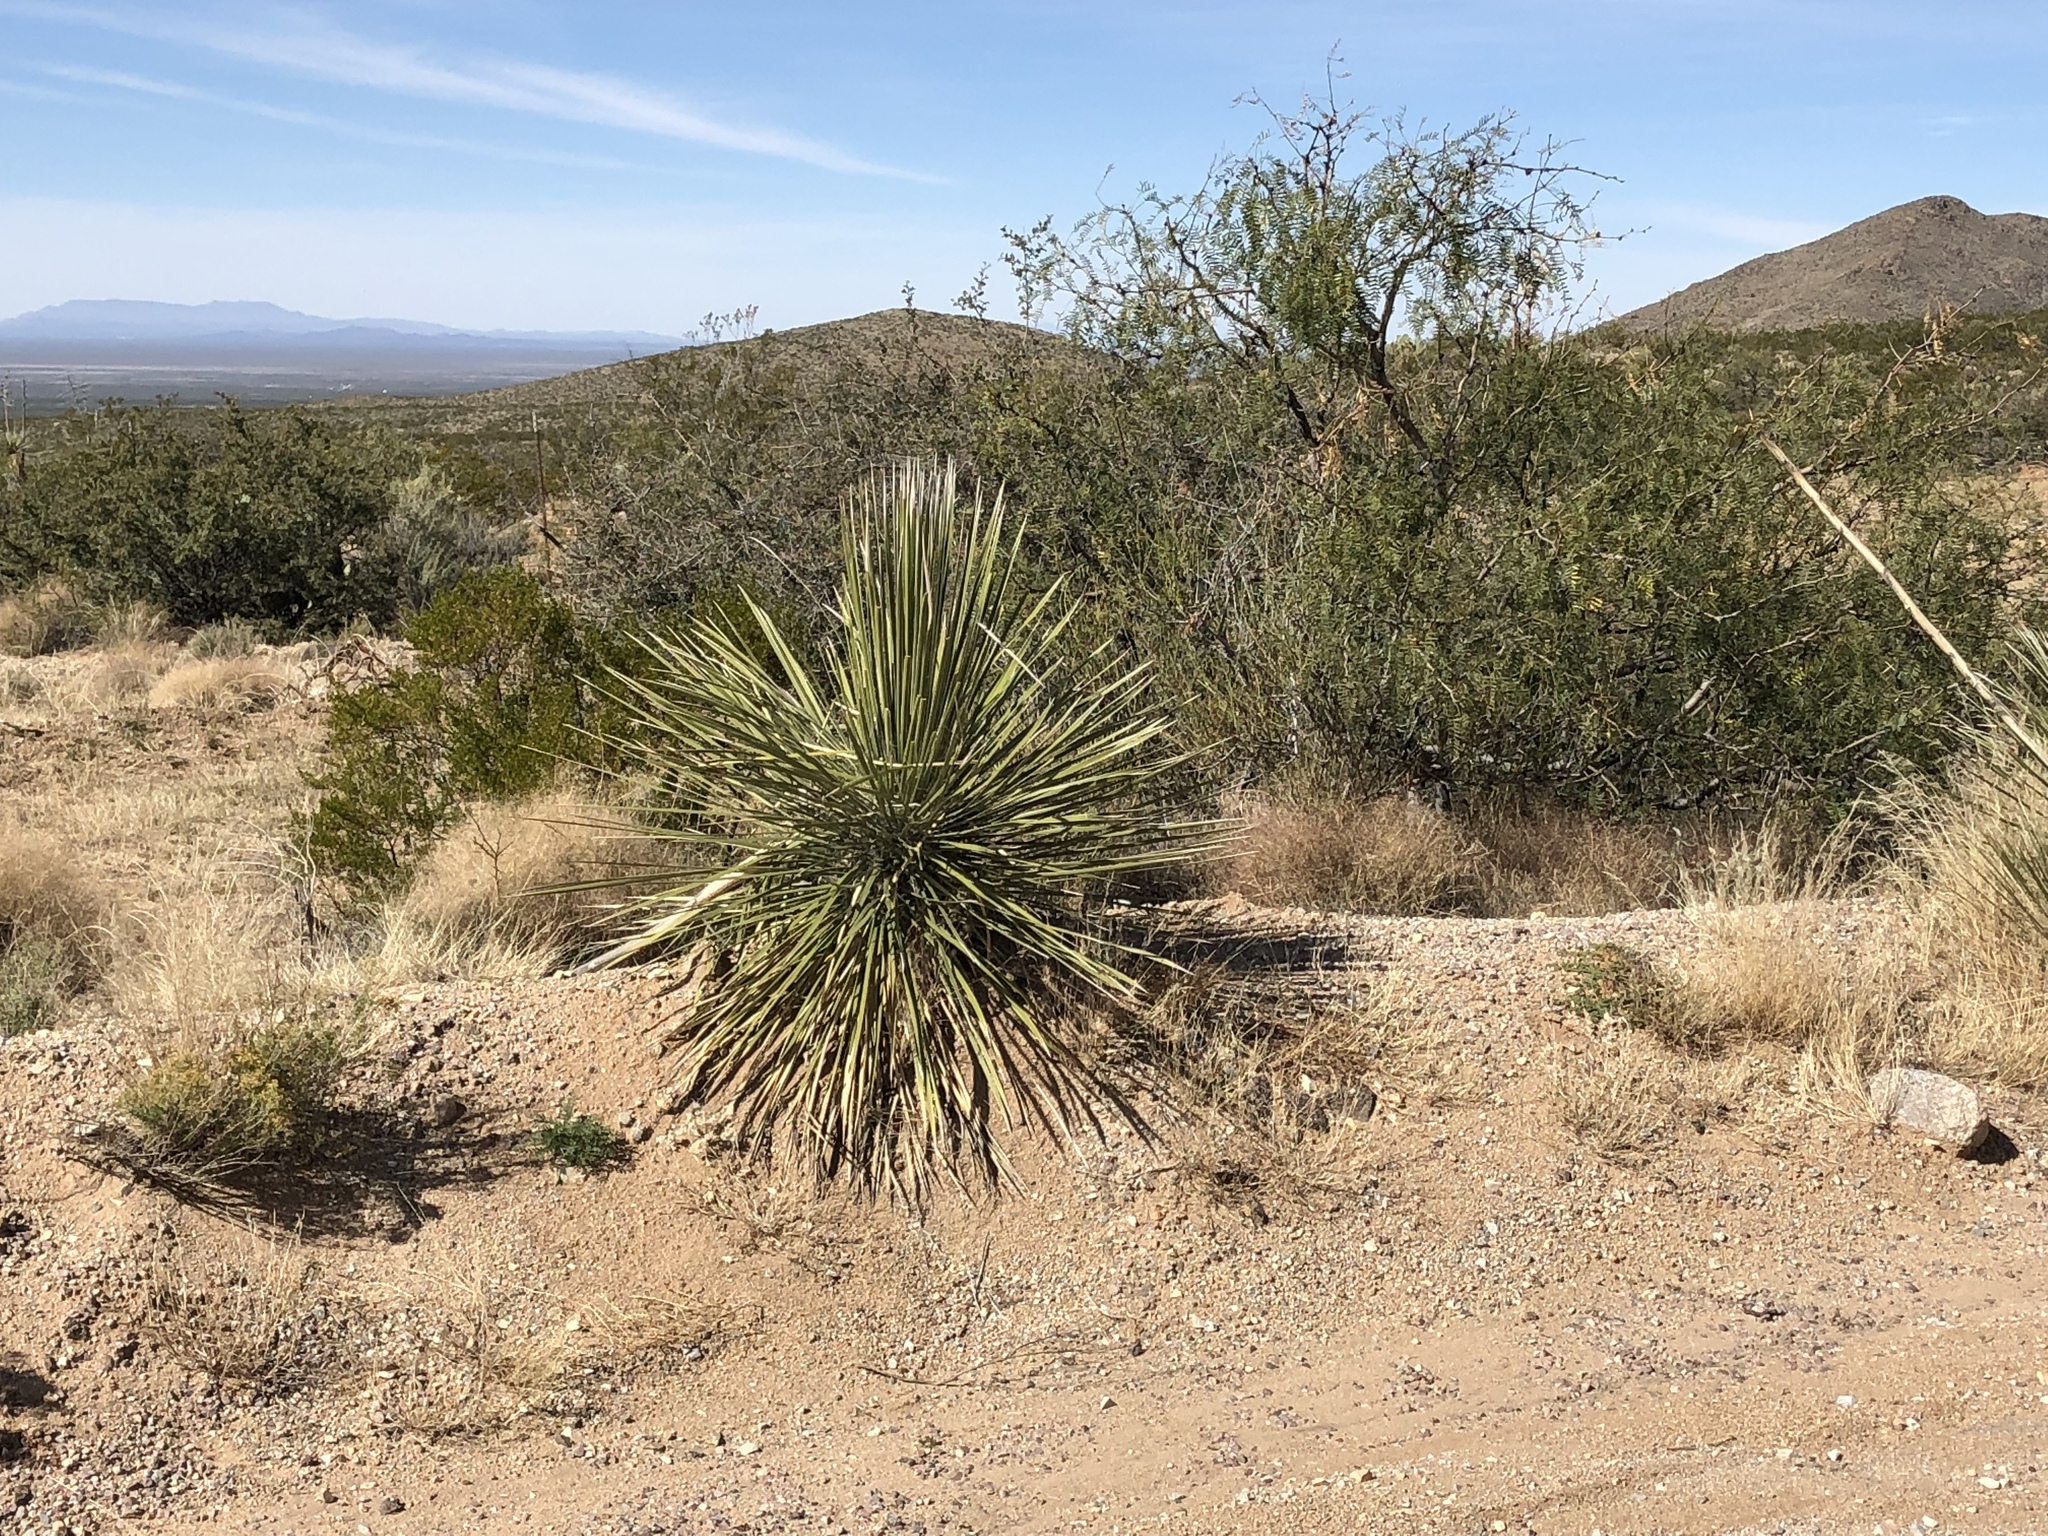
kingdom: Plantae
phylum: Tracheophyta
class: Liliopsida
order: Asparagales
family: Asparagaceae
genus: Yucca
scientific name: Yucca elata
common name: Palmella
